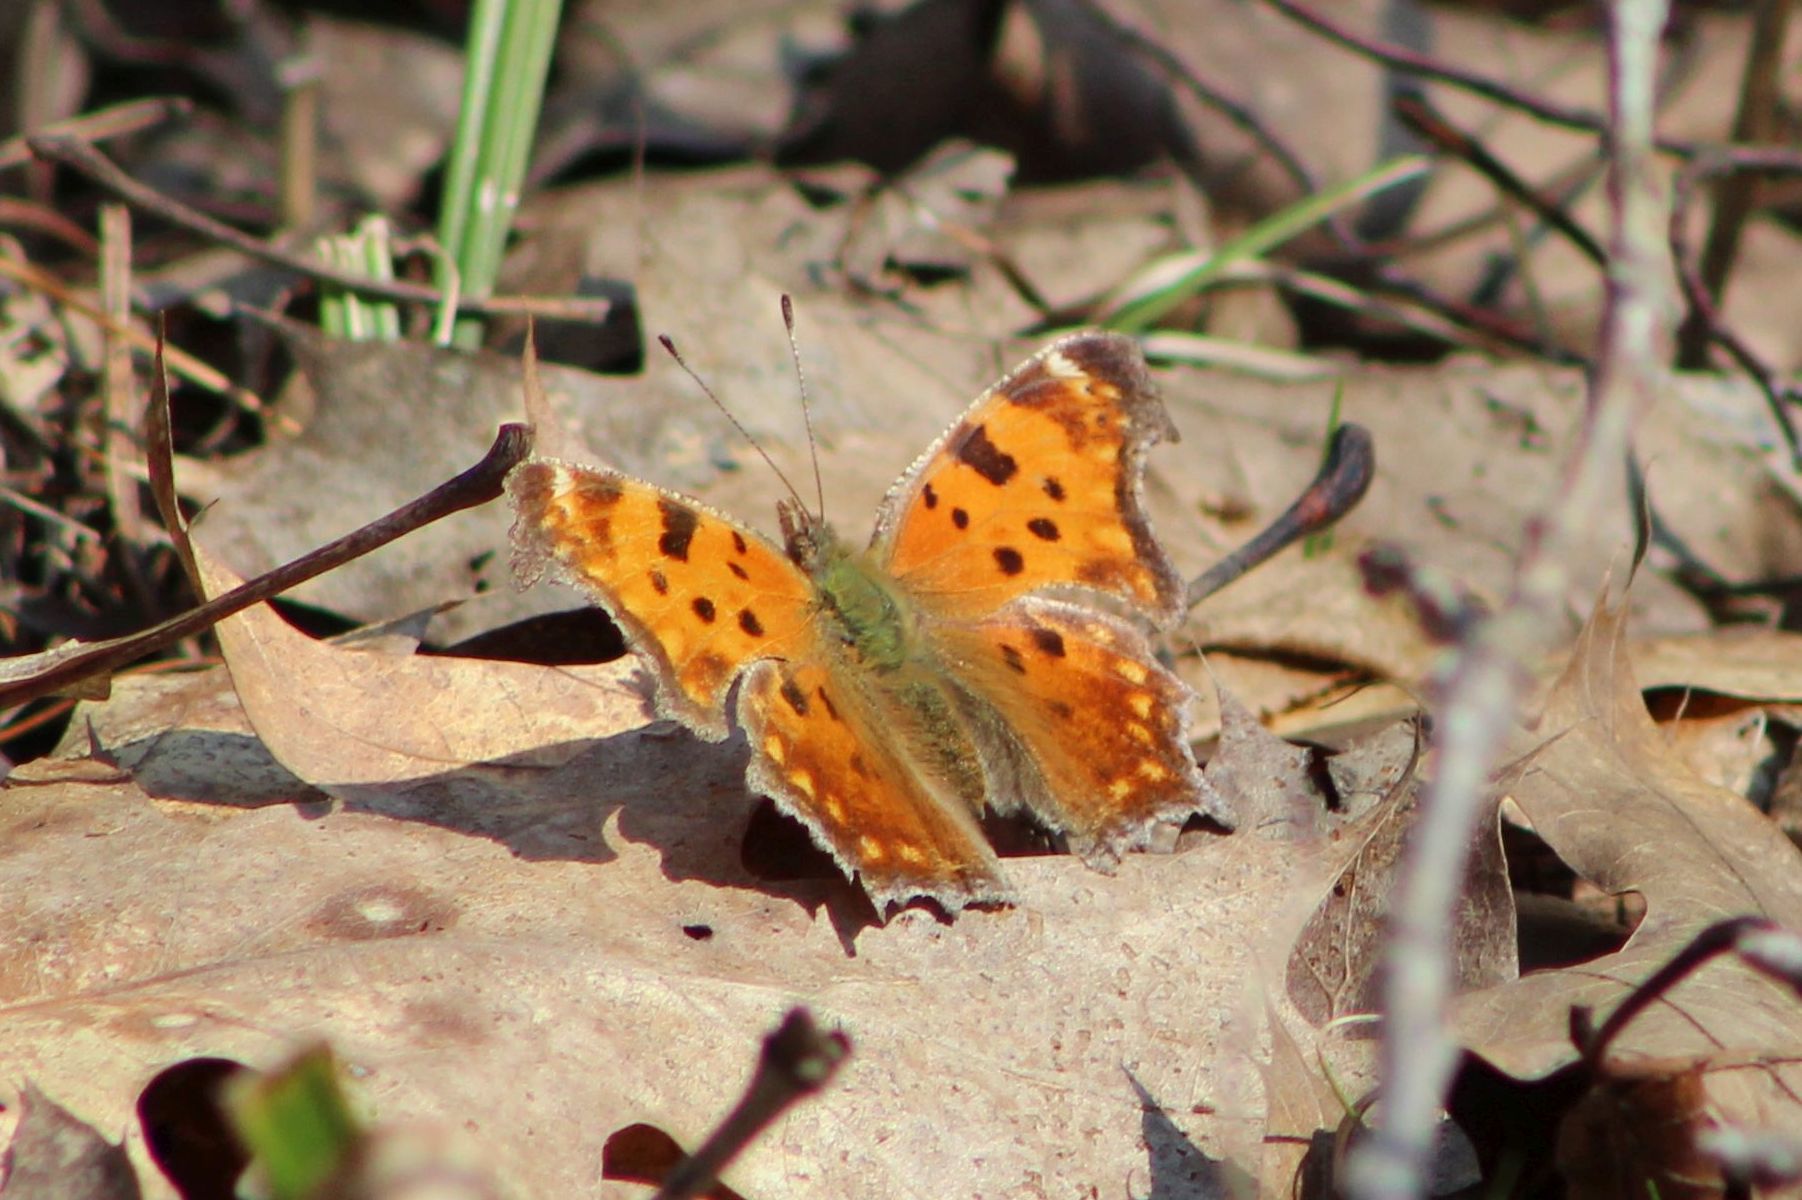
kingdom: Animalia
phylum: Arthropoda
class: Insecta
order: Lepidoptera
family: Nymphalidae
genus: Polygonia
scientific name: Polygonia comma
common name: Eastern comma
